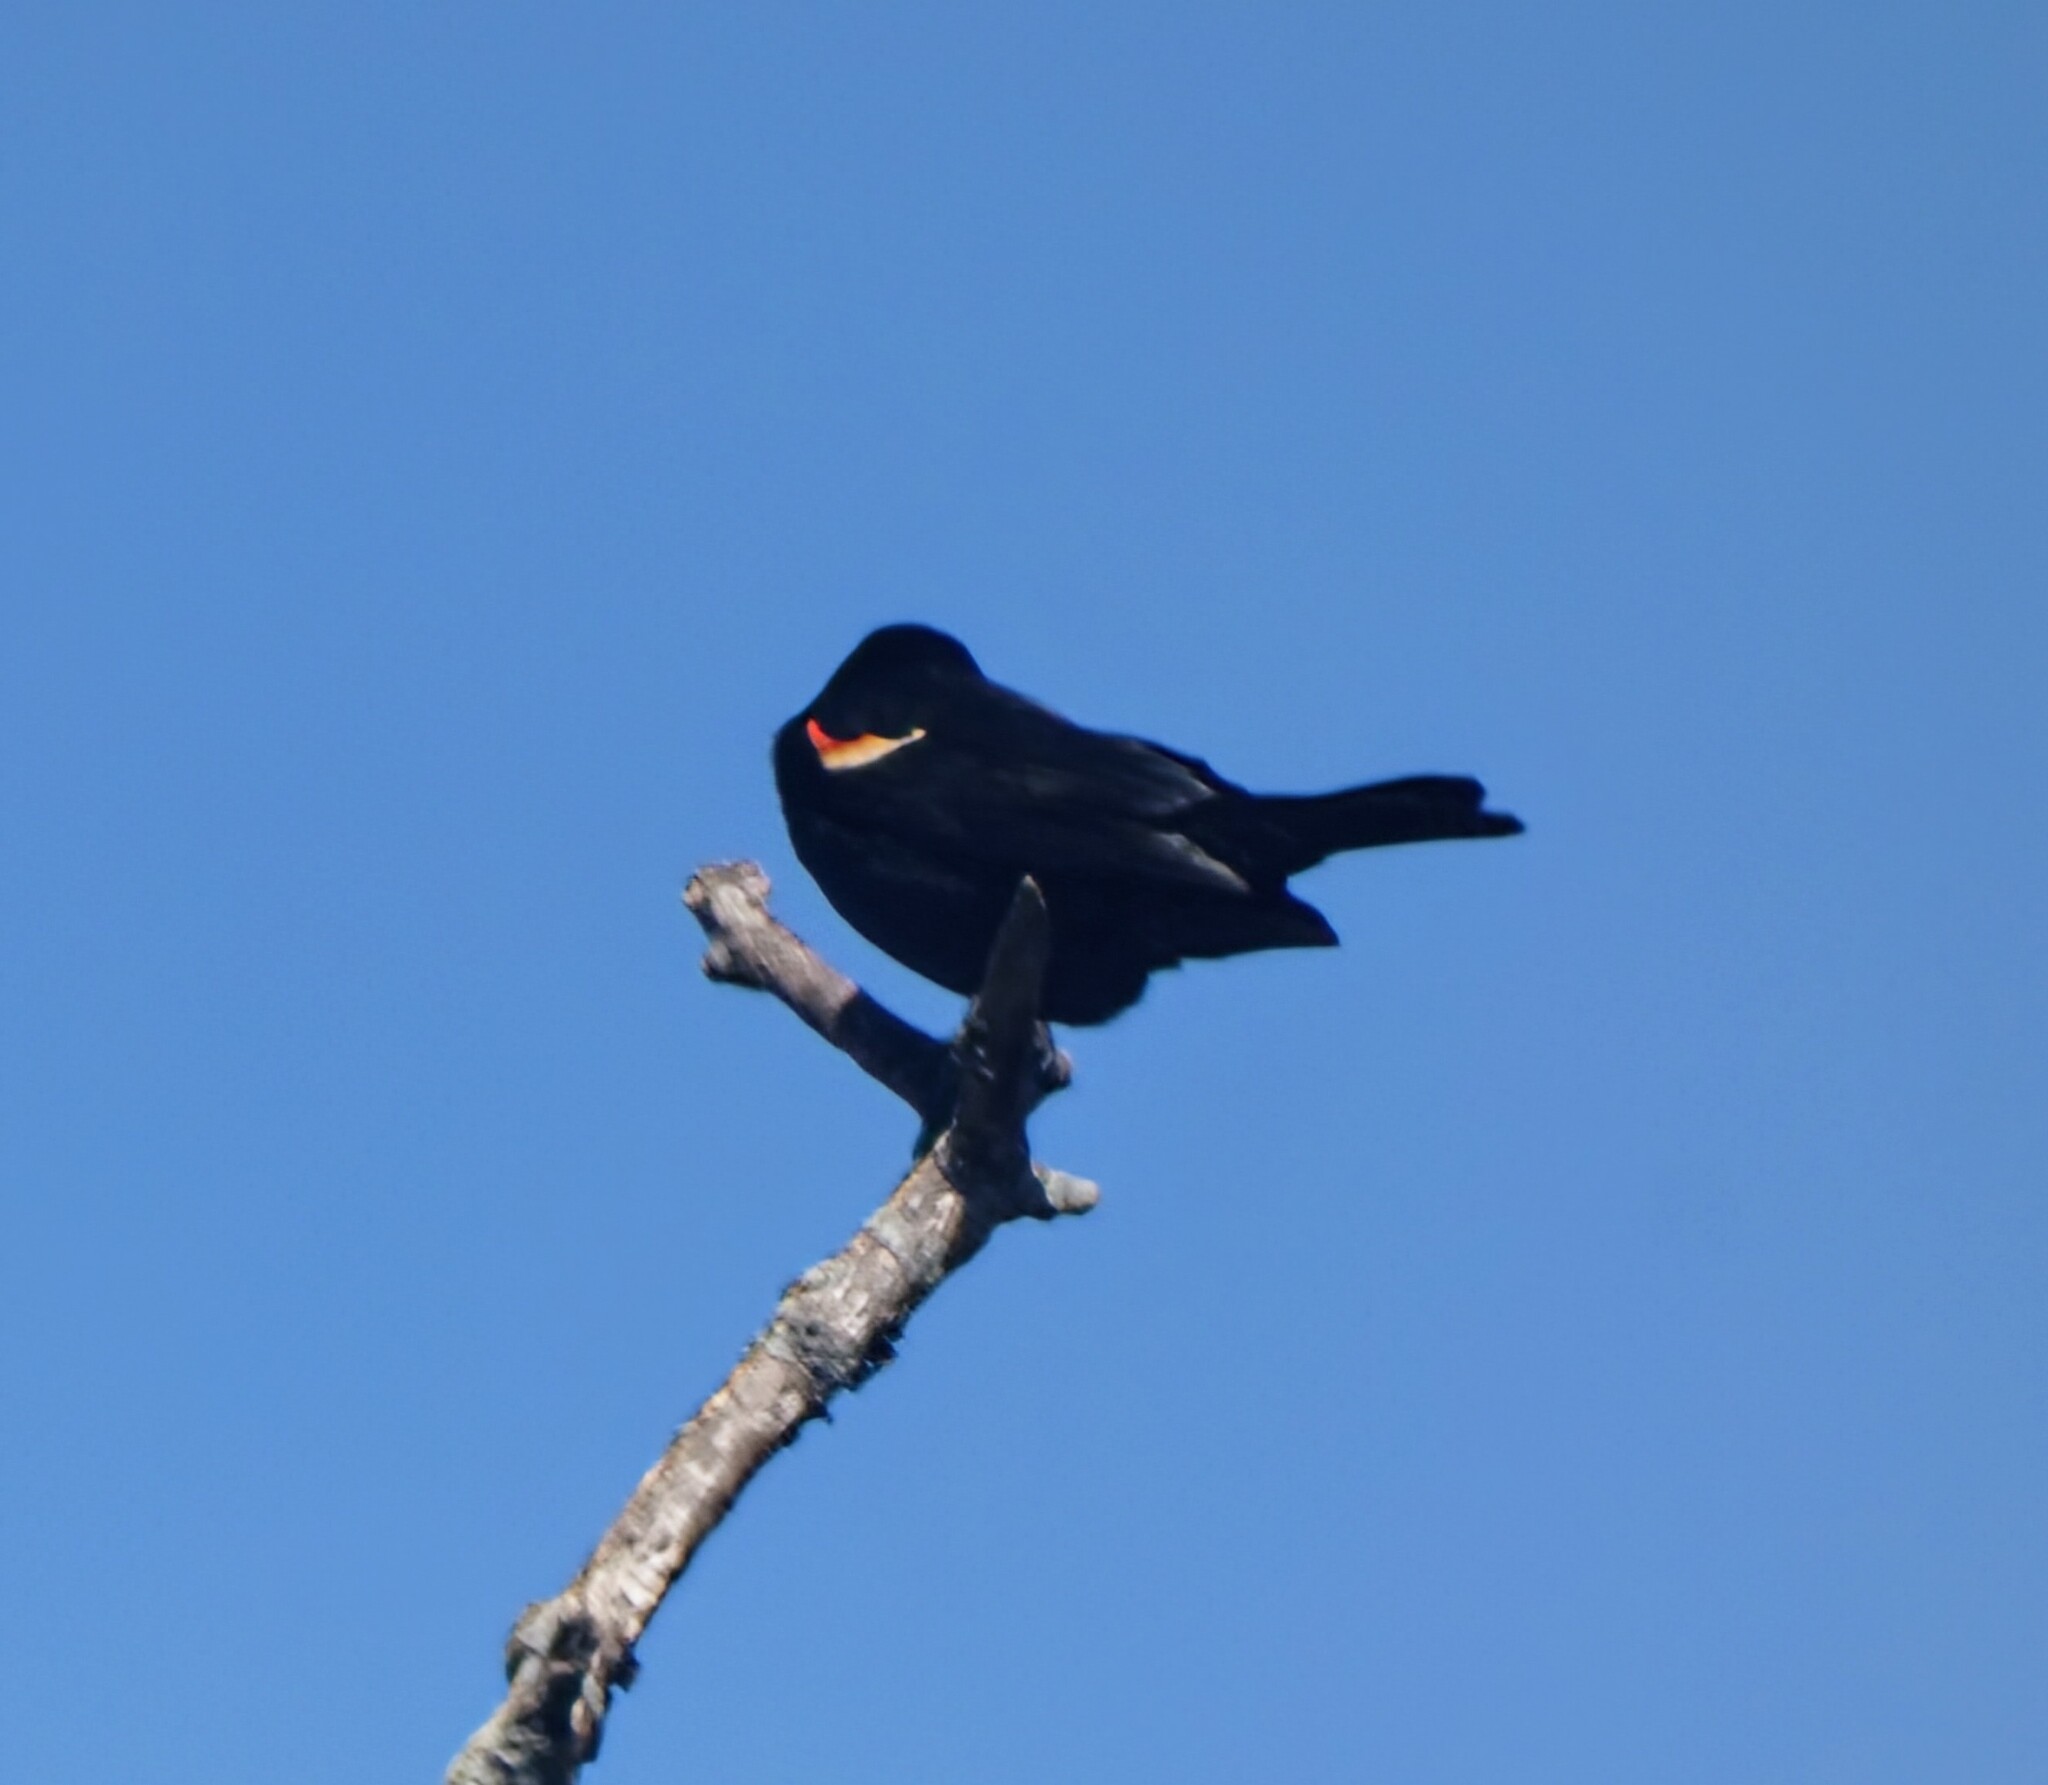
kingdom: Animalia
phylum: Chordata
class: Aves
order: Passeriformes
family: Icteridae
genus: Agelaius
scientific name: Agelaius phoeniceus
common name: Red-winged blackbird
